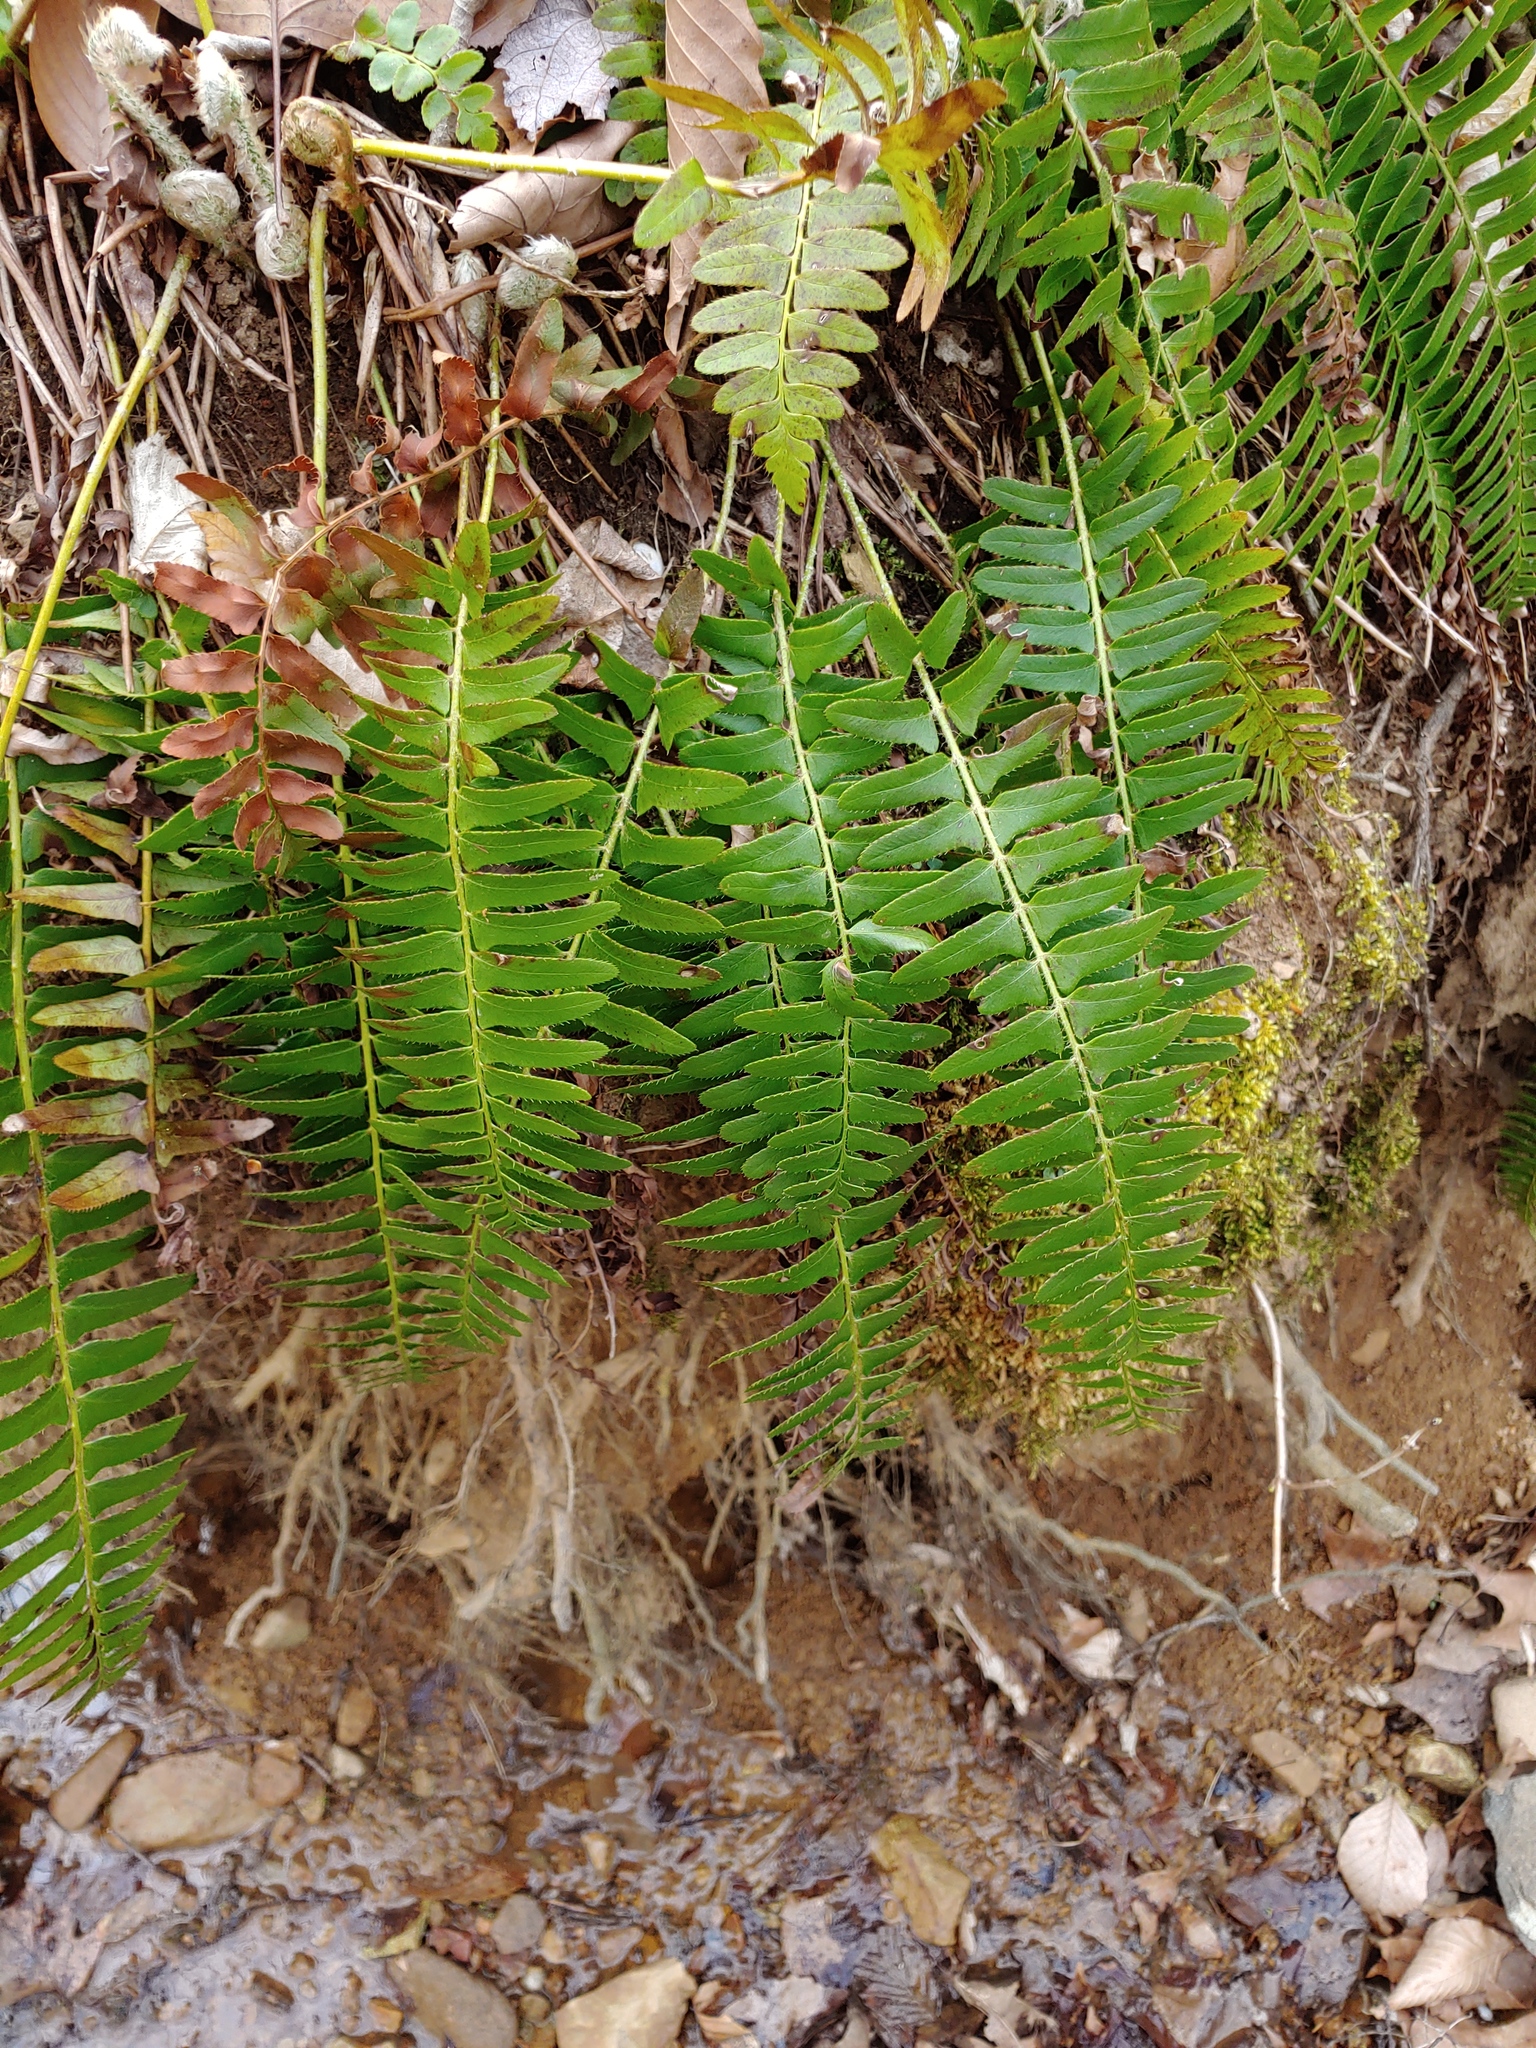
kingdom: Plantae
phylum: Tracheophyta
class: Polypodiopsida
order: Polypodiales
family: Dryopteridaceae
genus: Polystichum
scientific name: Polystichum acrostichoides
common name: Christmas fern
